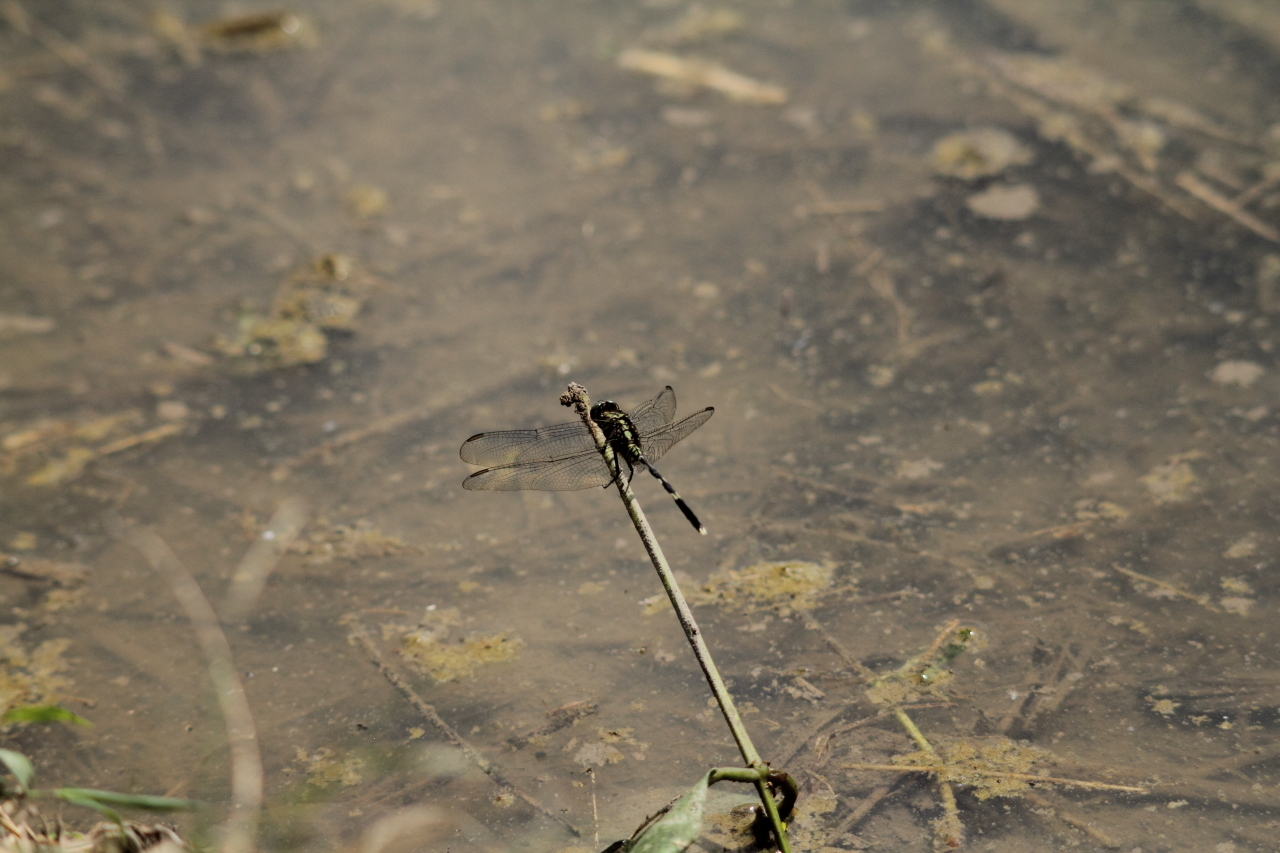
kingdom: Animalia
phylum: Arthropoda
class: Insecta
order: Odonata
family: Libellulidae
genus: Orthetrum
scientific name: Orthetrum sabina
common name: Slender skimmer
